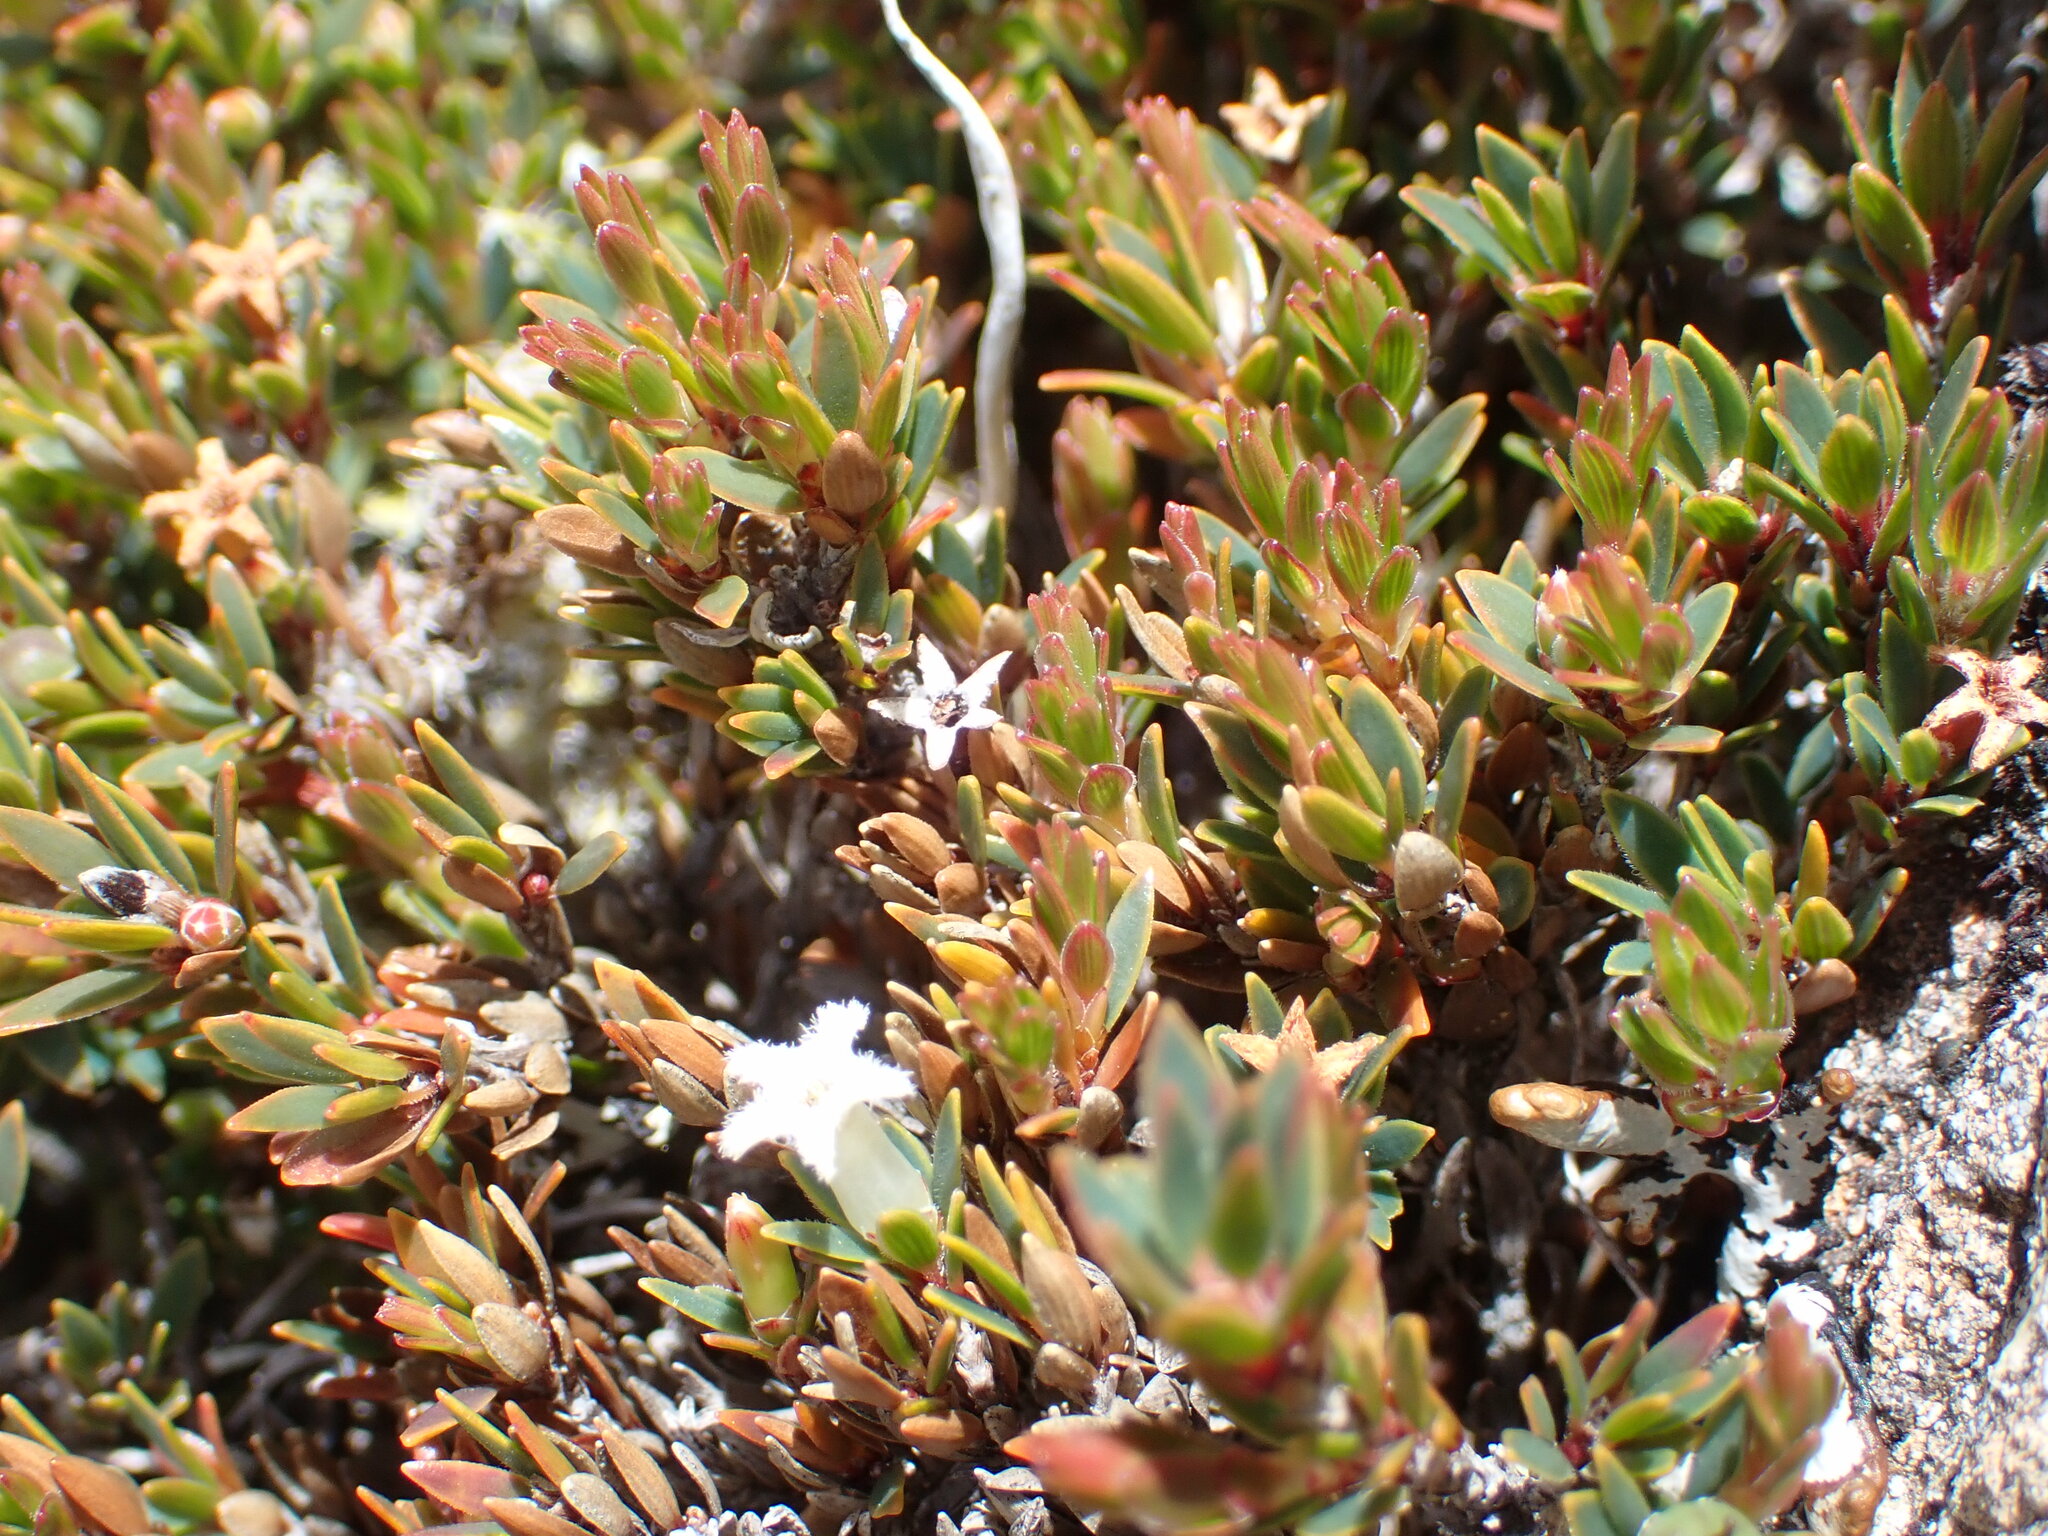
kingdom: Plantae
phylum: Tracheophyta
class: Magnoliopsida
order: Ericales
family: Ericaceae
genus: Pentachondra
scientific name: Pentachondra pumila
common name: Carpet-heath
